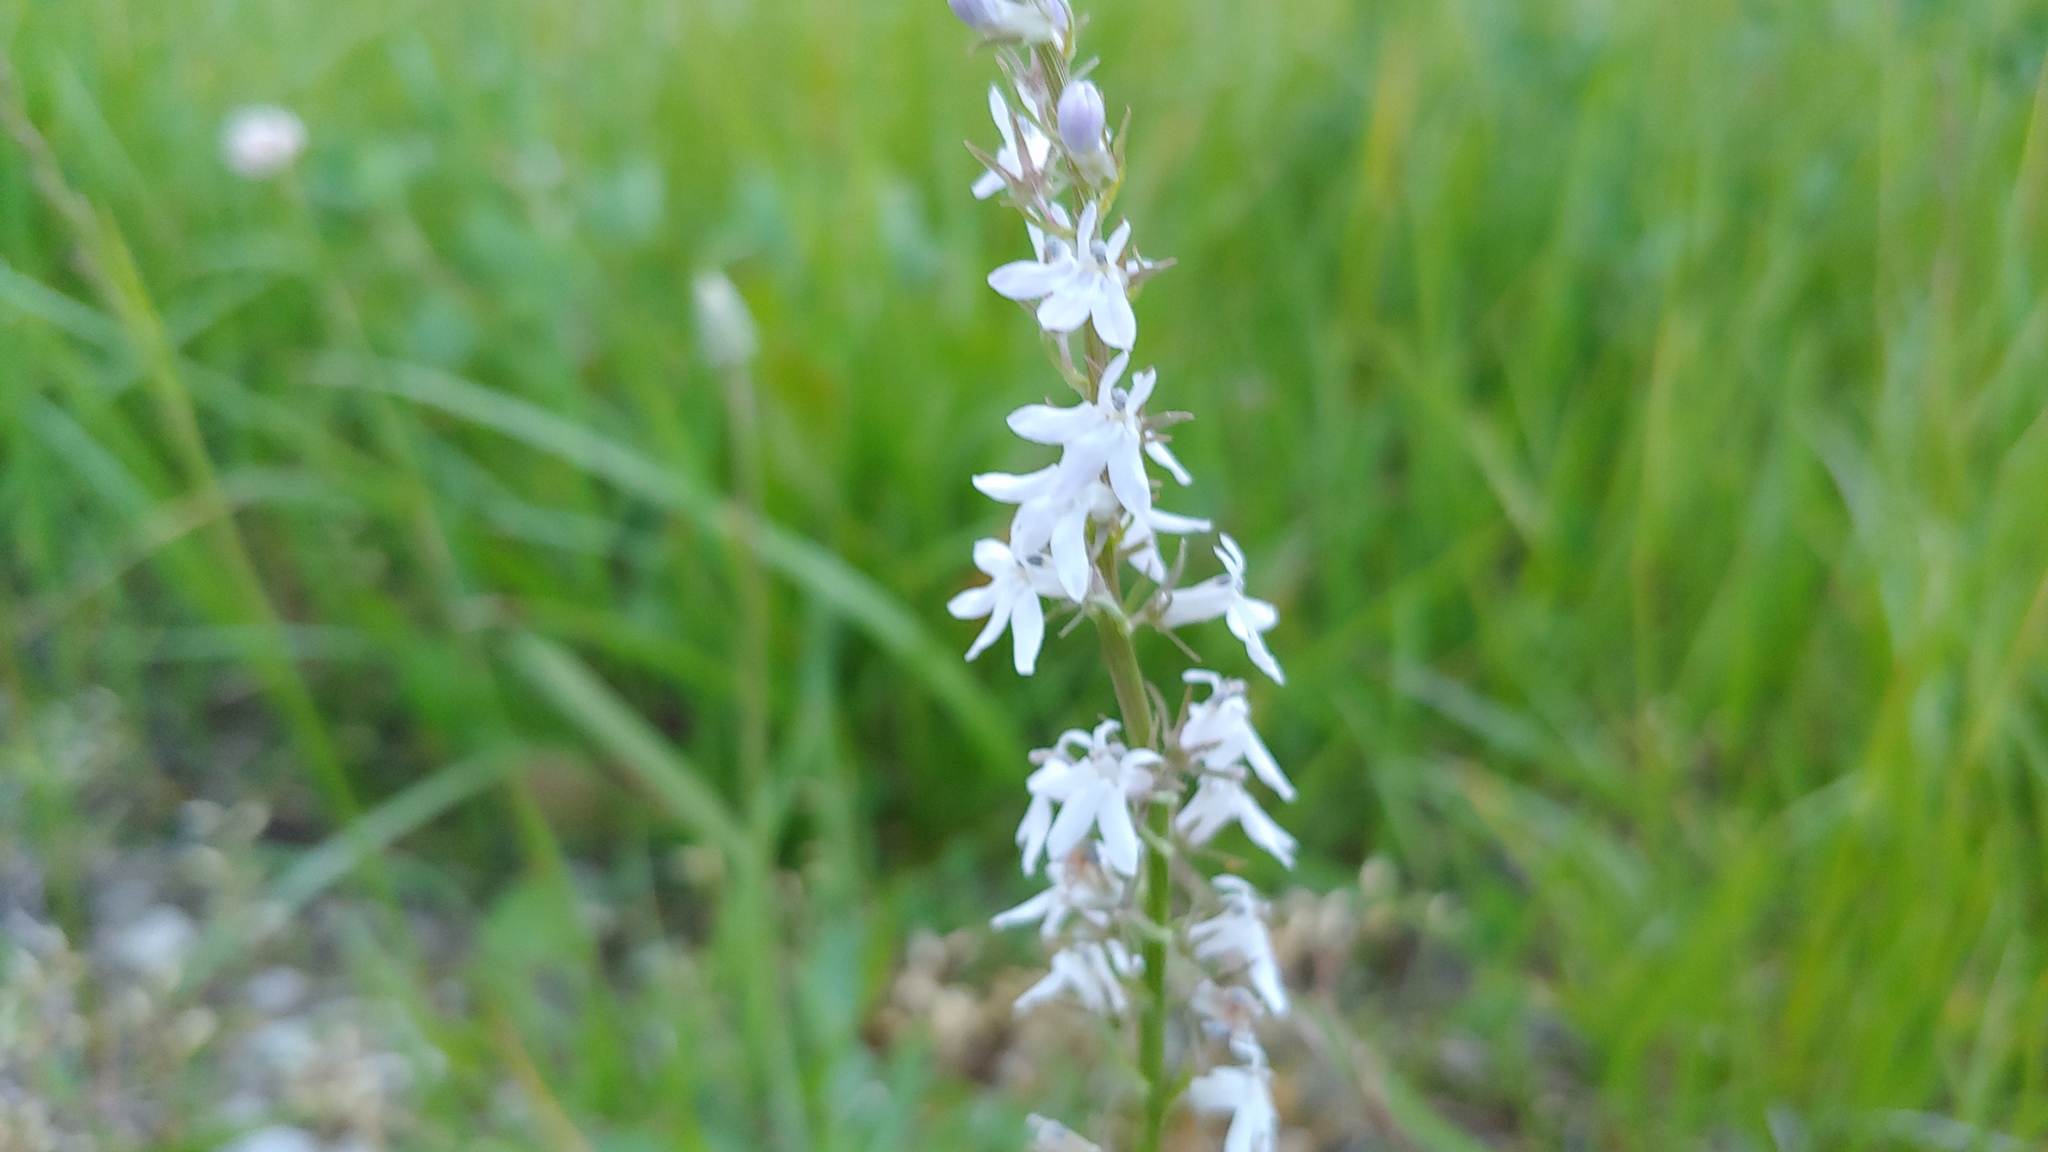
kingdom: Plantae
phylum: Tracheophyta
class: Magnoliopsida
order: Asterales
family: Campanulaceae
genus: Lobelia
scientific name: Lobelia spicata
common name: Pale-spike lobelia
